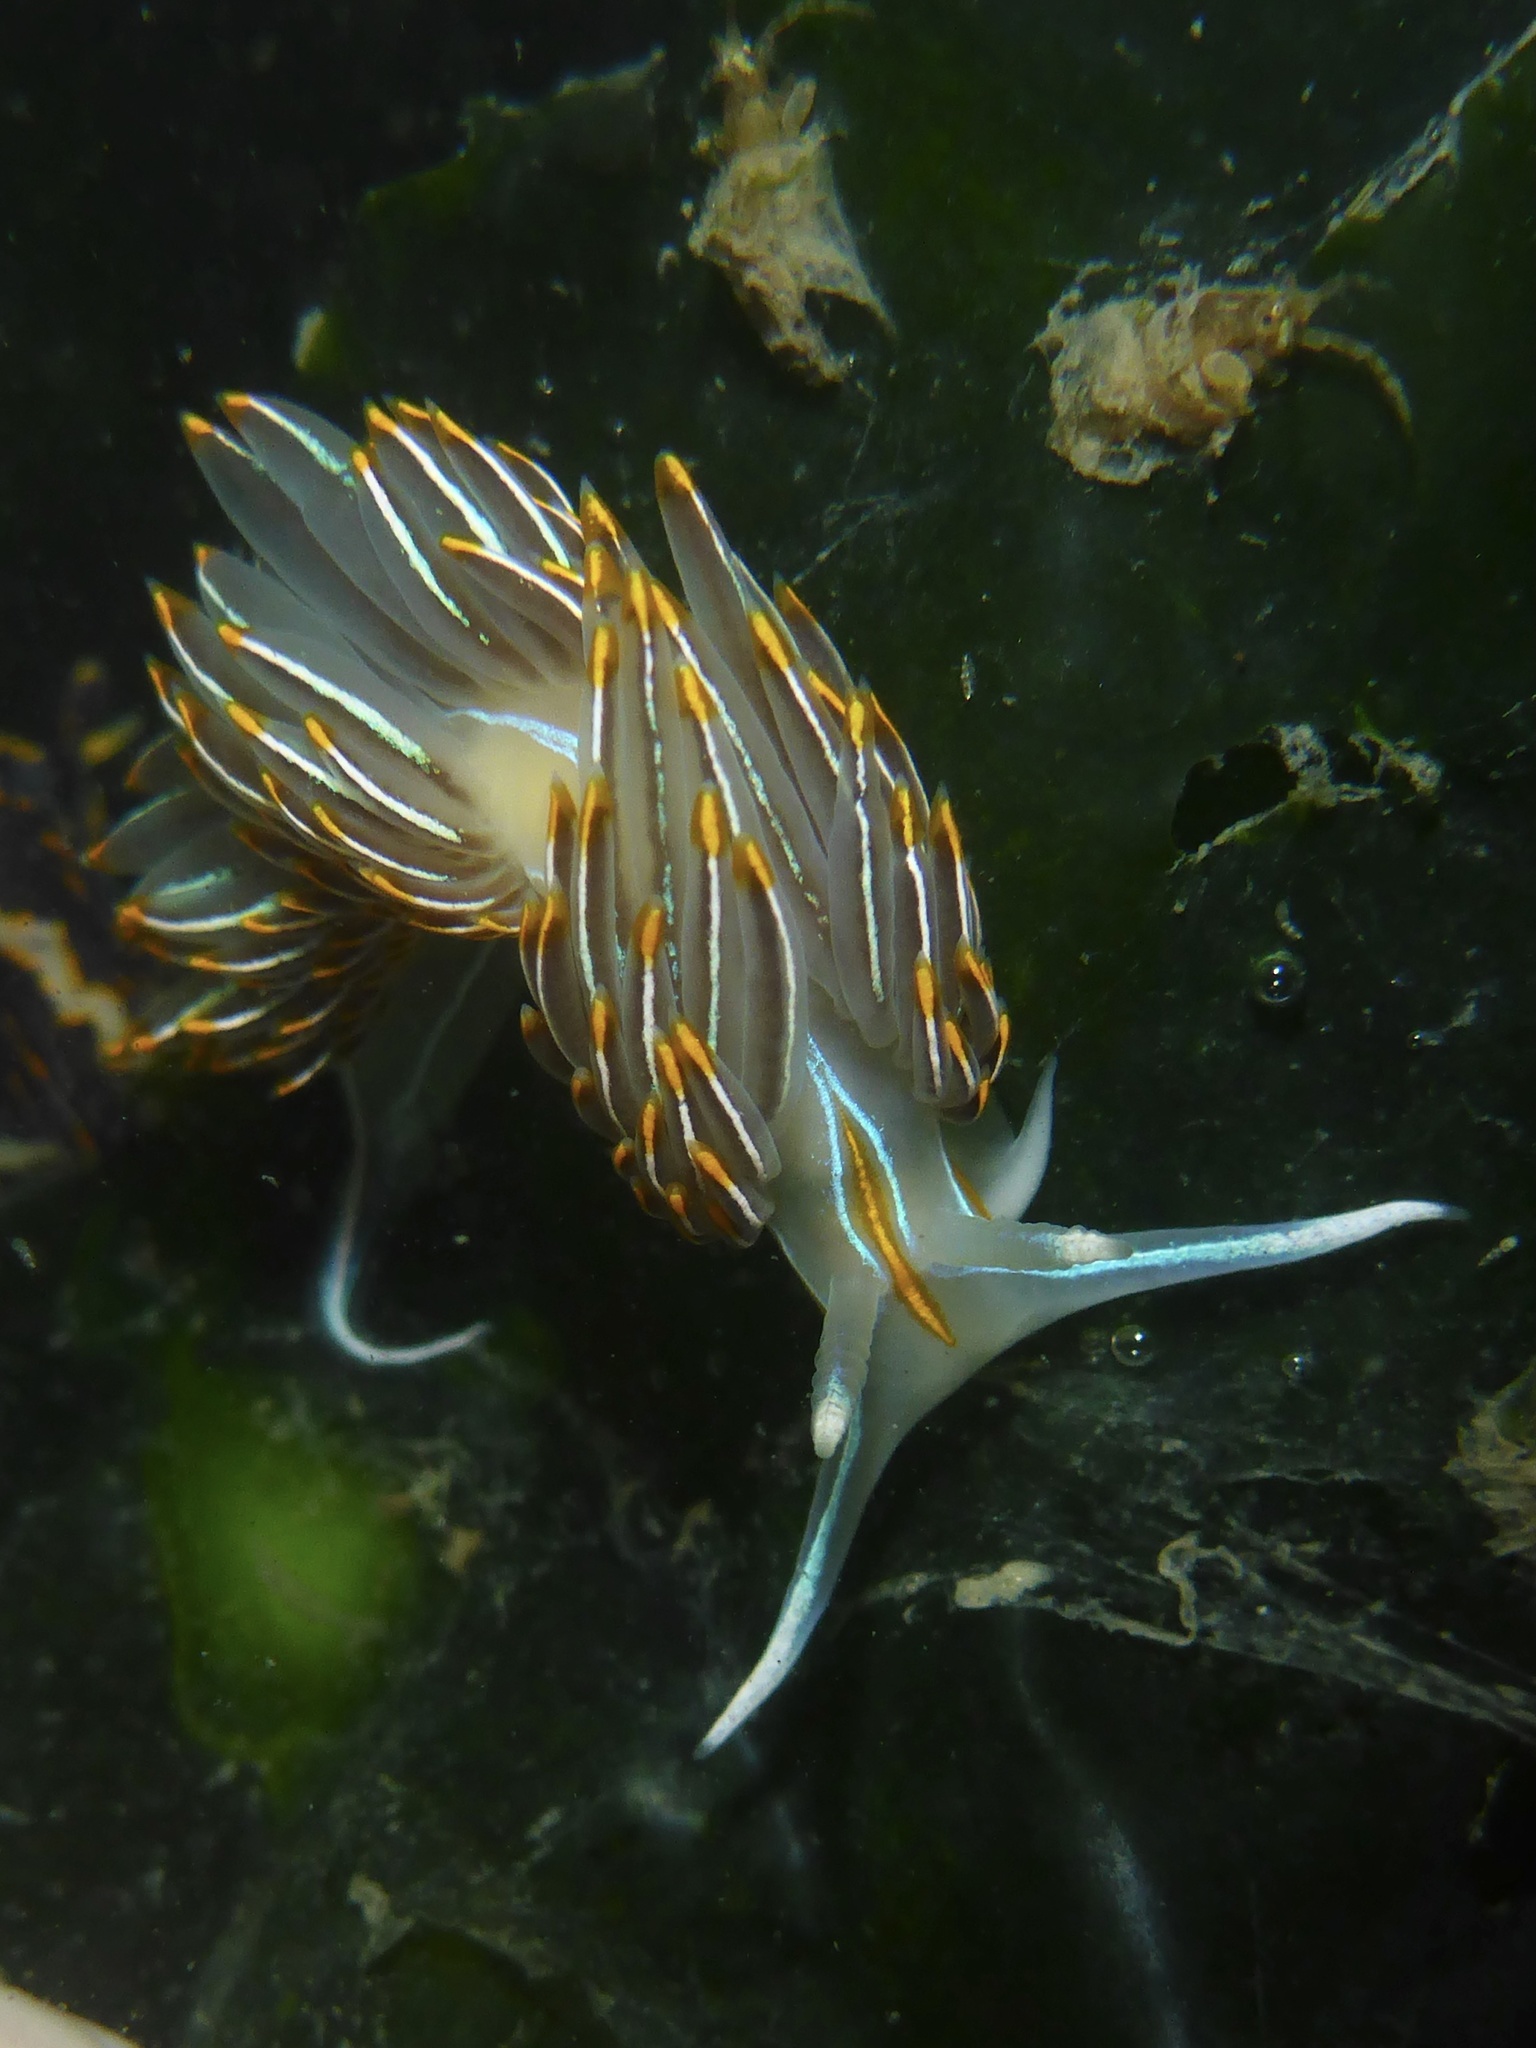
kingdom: Animalia
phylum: Mollusca
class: Gastropoda
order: Nudibranchia
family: Myrrhinidae
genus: Hermissenda
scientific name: Hermissenda crassicornis
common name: Hermissenda
